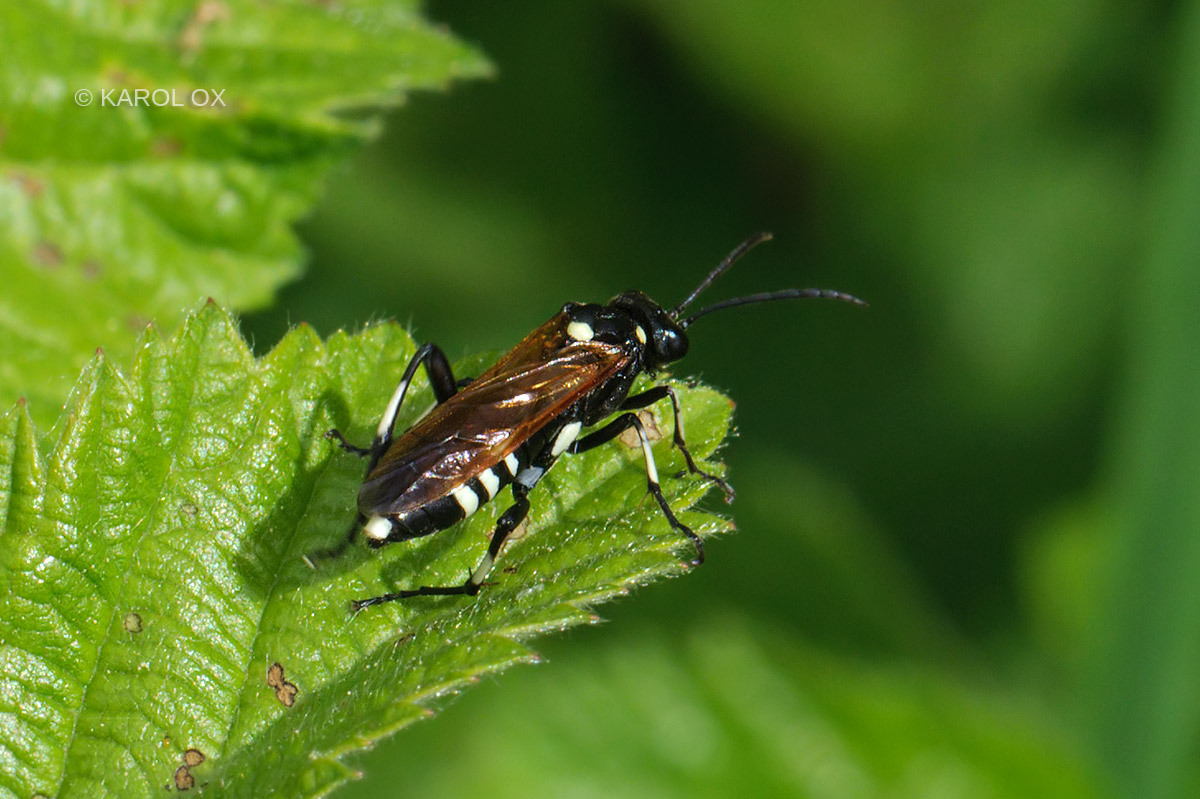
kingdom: Animalia
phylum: Arthropoda
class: Insecta
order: Hymenoptera
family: Tenthredinidae
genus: Macrophya
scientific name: Macrophya duodecimpunctata
